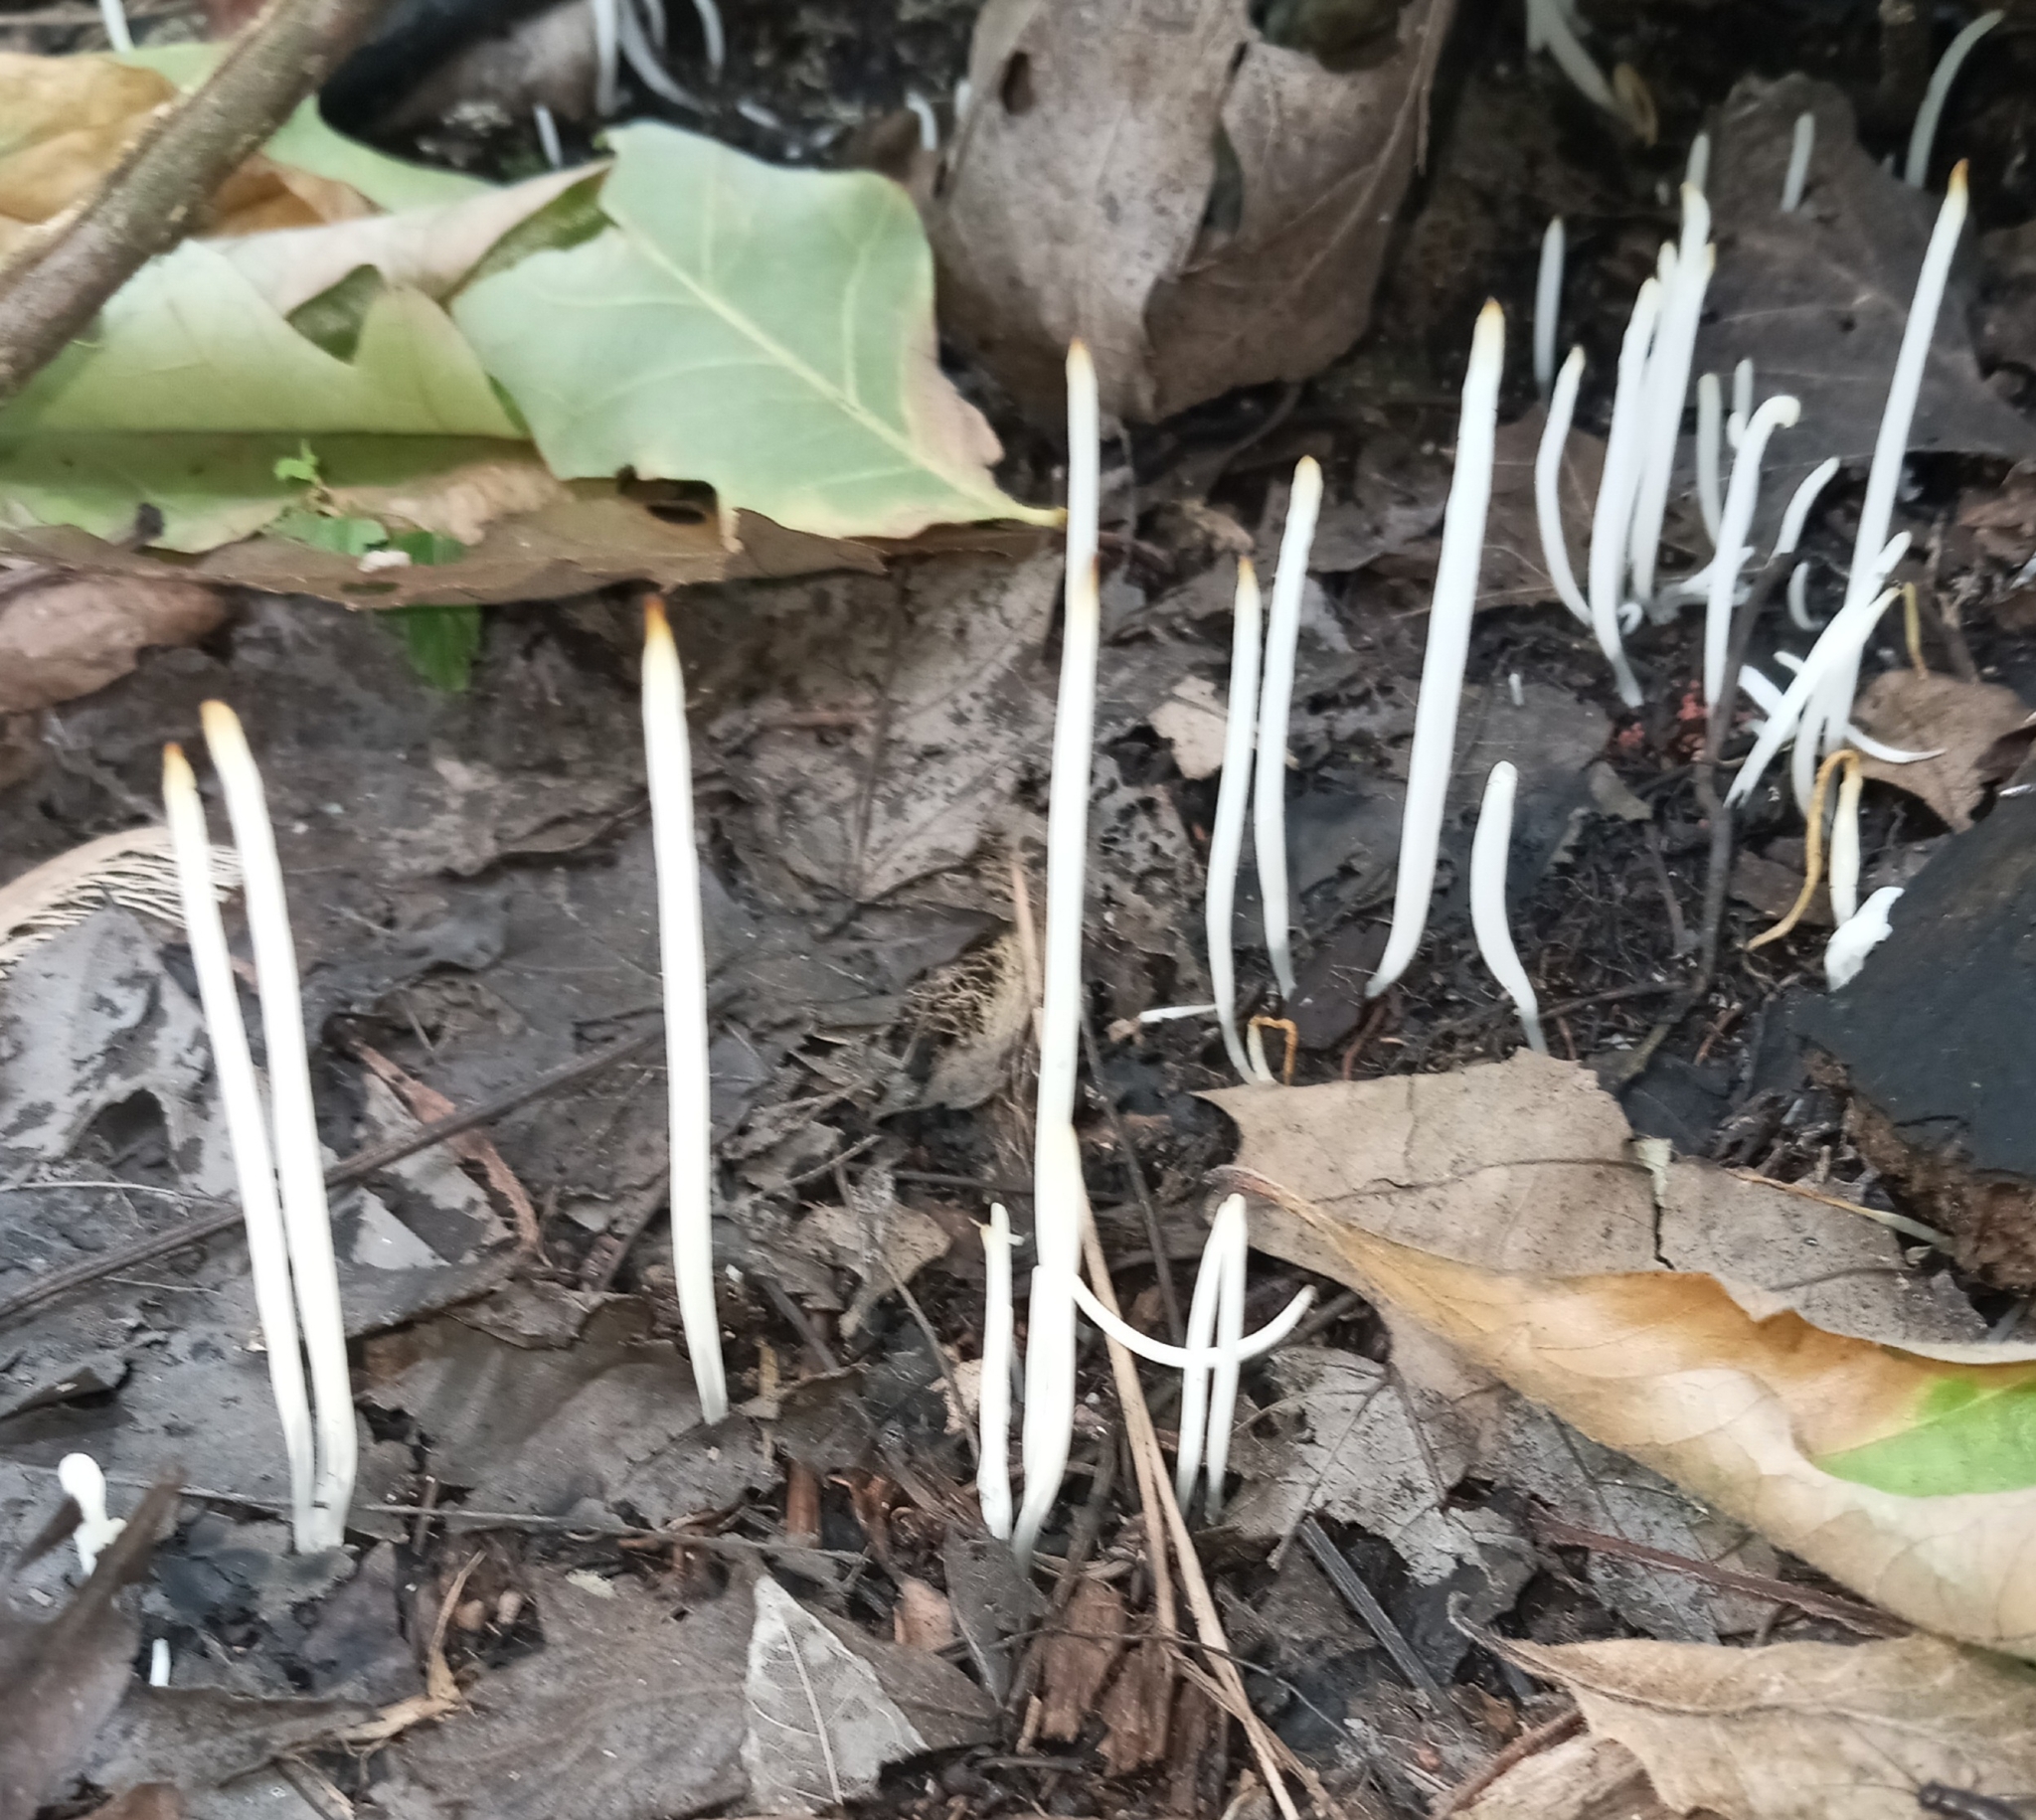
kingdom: Fungi
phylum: Basidiomycota
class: Agaricomycetes
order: Agaricales
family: Clavariaceae
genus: Clavaria
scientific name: Clavaria fragilis
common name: White spindles
